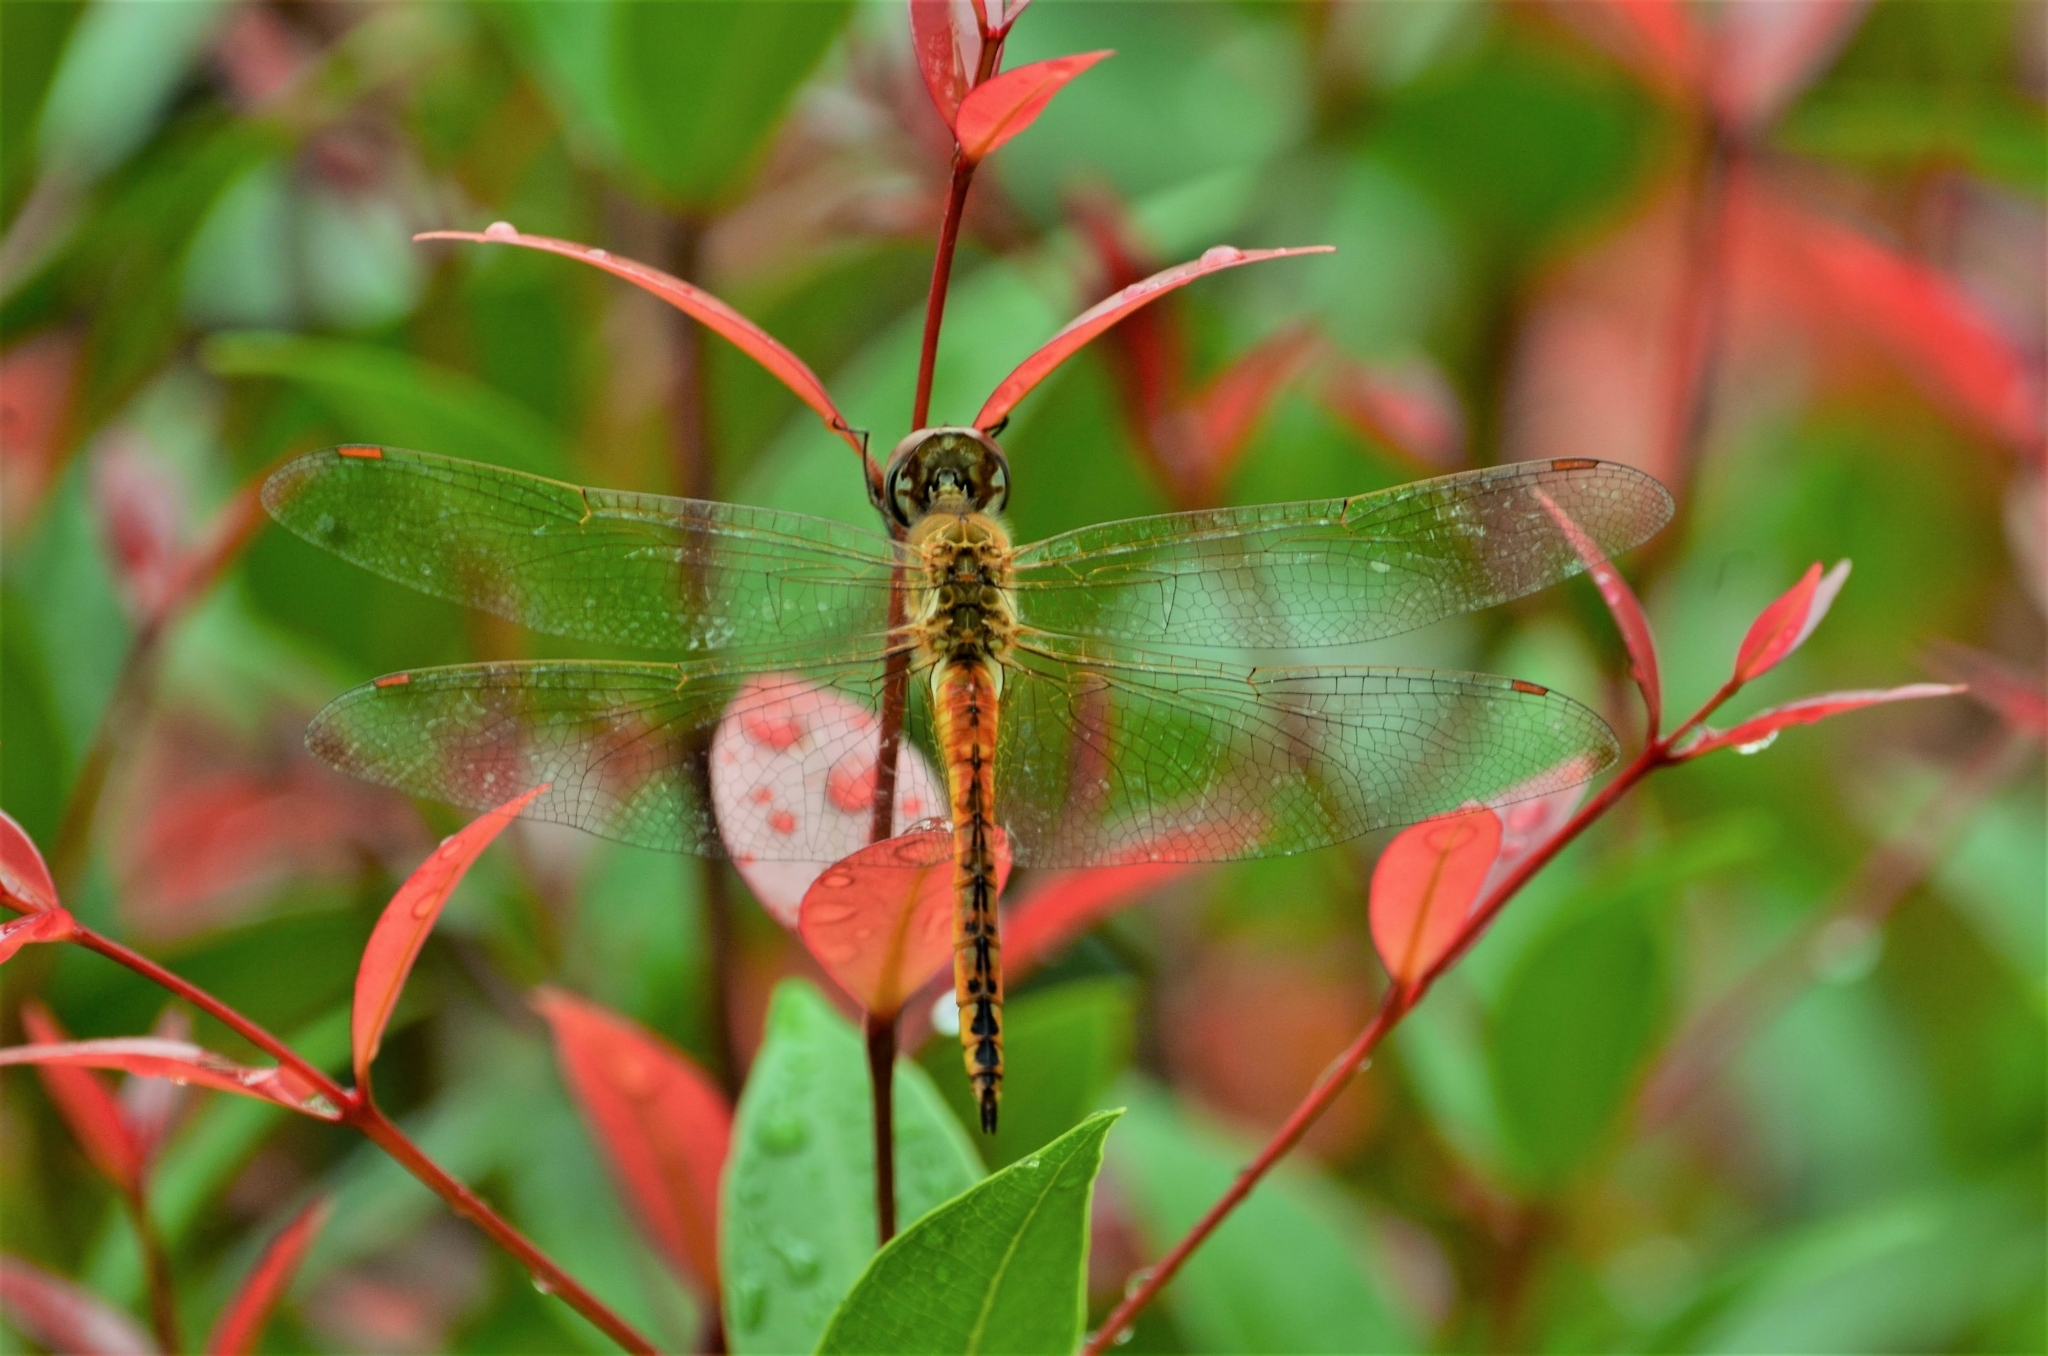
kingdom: Animalia
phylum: Arthropoda
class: Insecta
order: Odonata
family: Libellulidae
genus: Pantala
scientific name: Pantala flavescens
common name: Wandering glider
